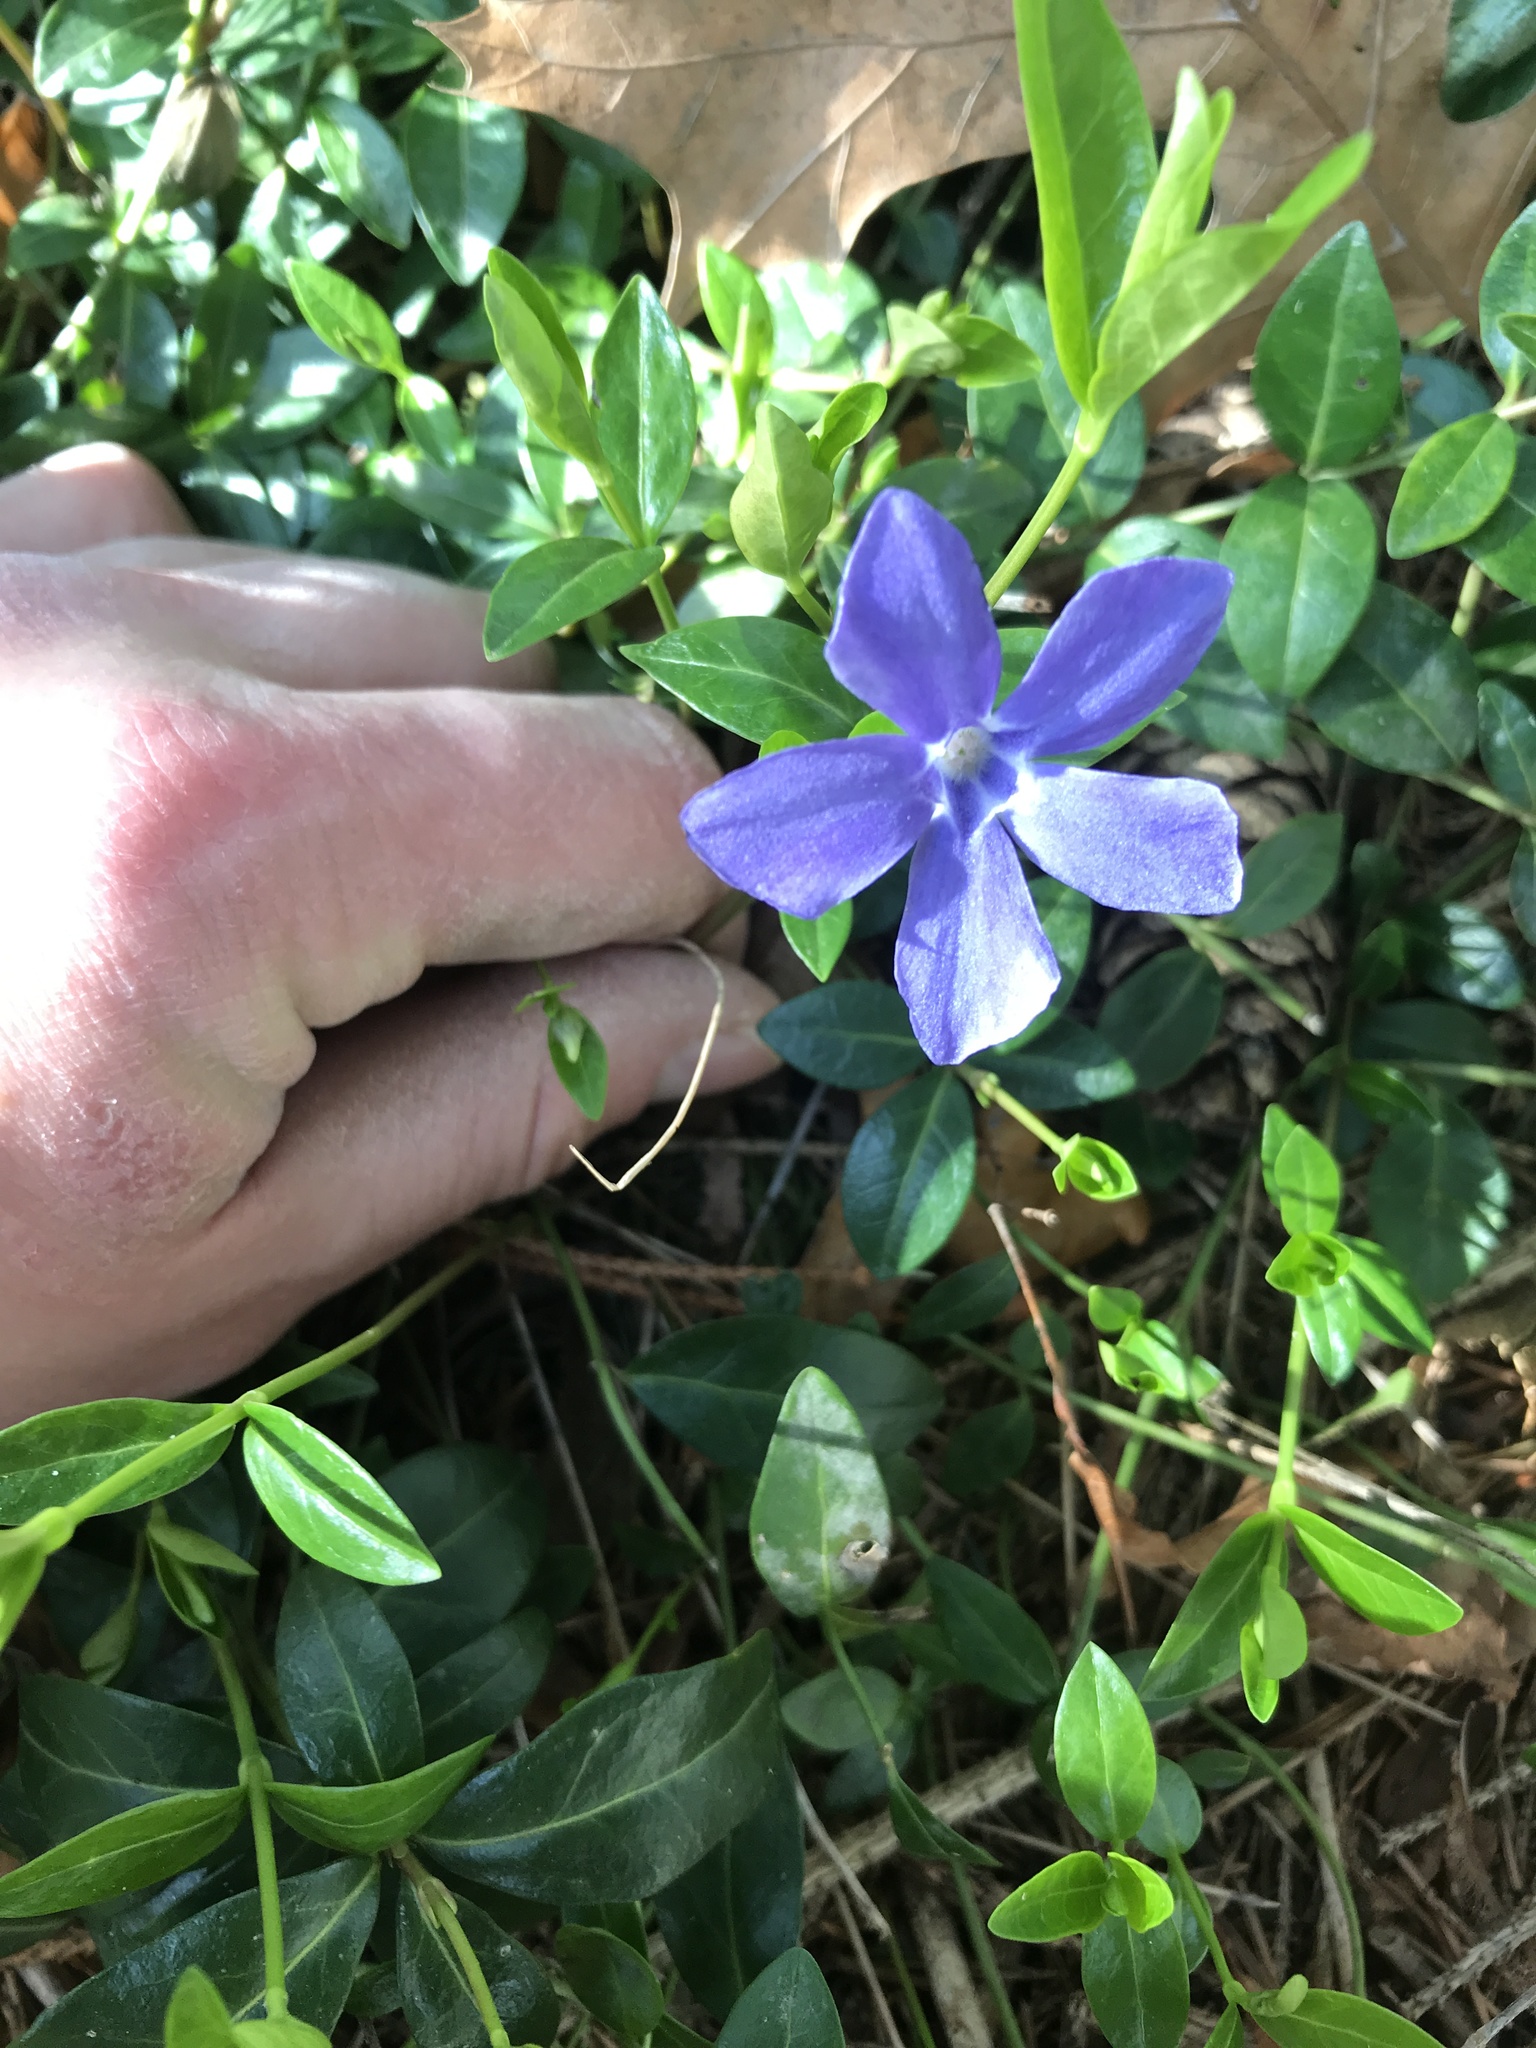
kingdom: Plantae
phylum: Tracheophyta
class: Magnoliopsida
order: Gentianales
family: Apocynaceae
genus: Vinca
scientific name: Vinca minor
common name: Lesser periwinkle
